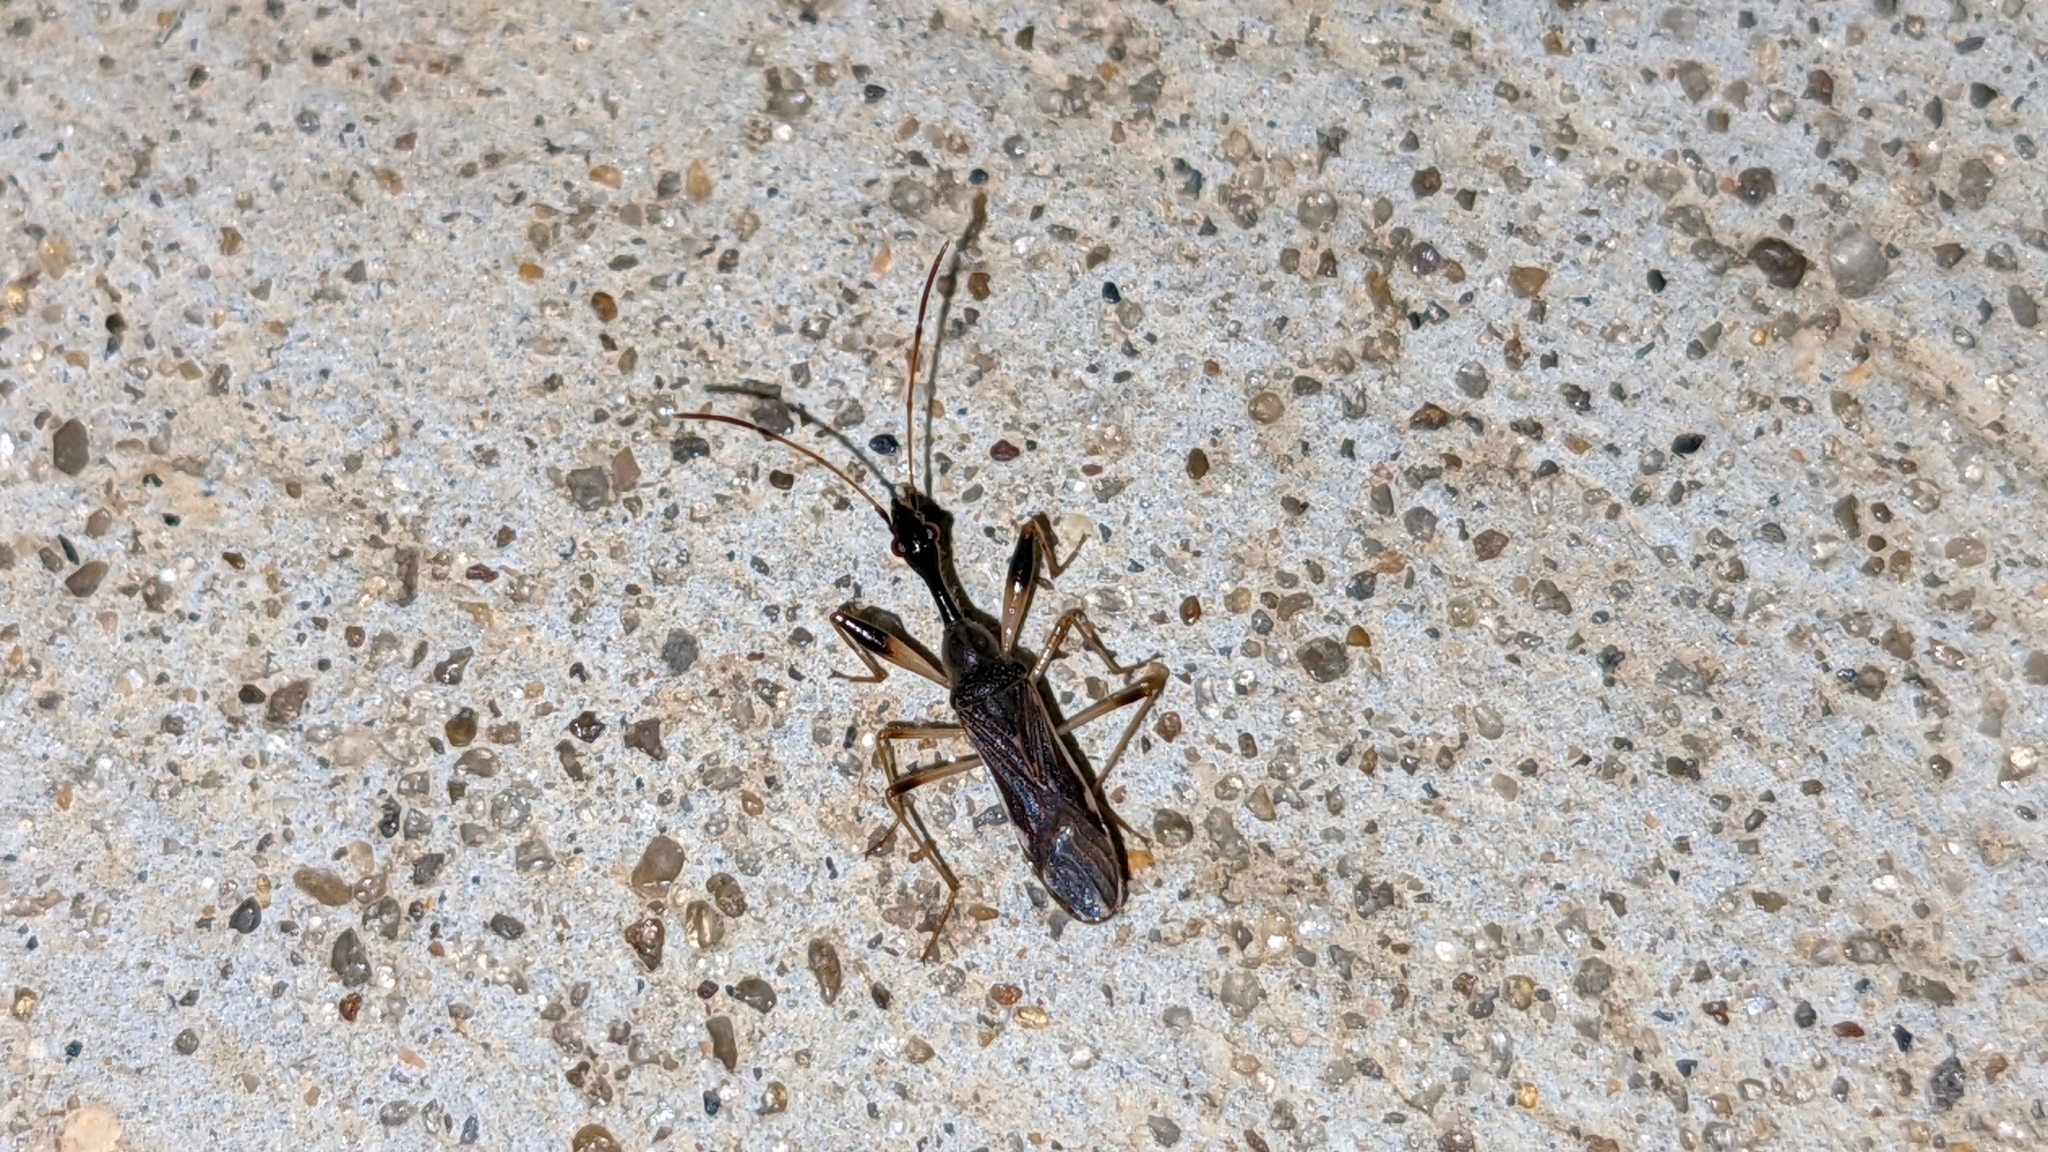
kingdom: Animalia
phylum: Arthropoda
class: Insecta
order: Hemiptera
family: Rhyparochromidae
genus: Myodocha
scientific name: Myodocha serripes
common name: Long-necked seed bug
